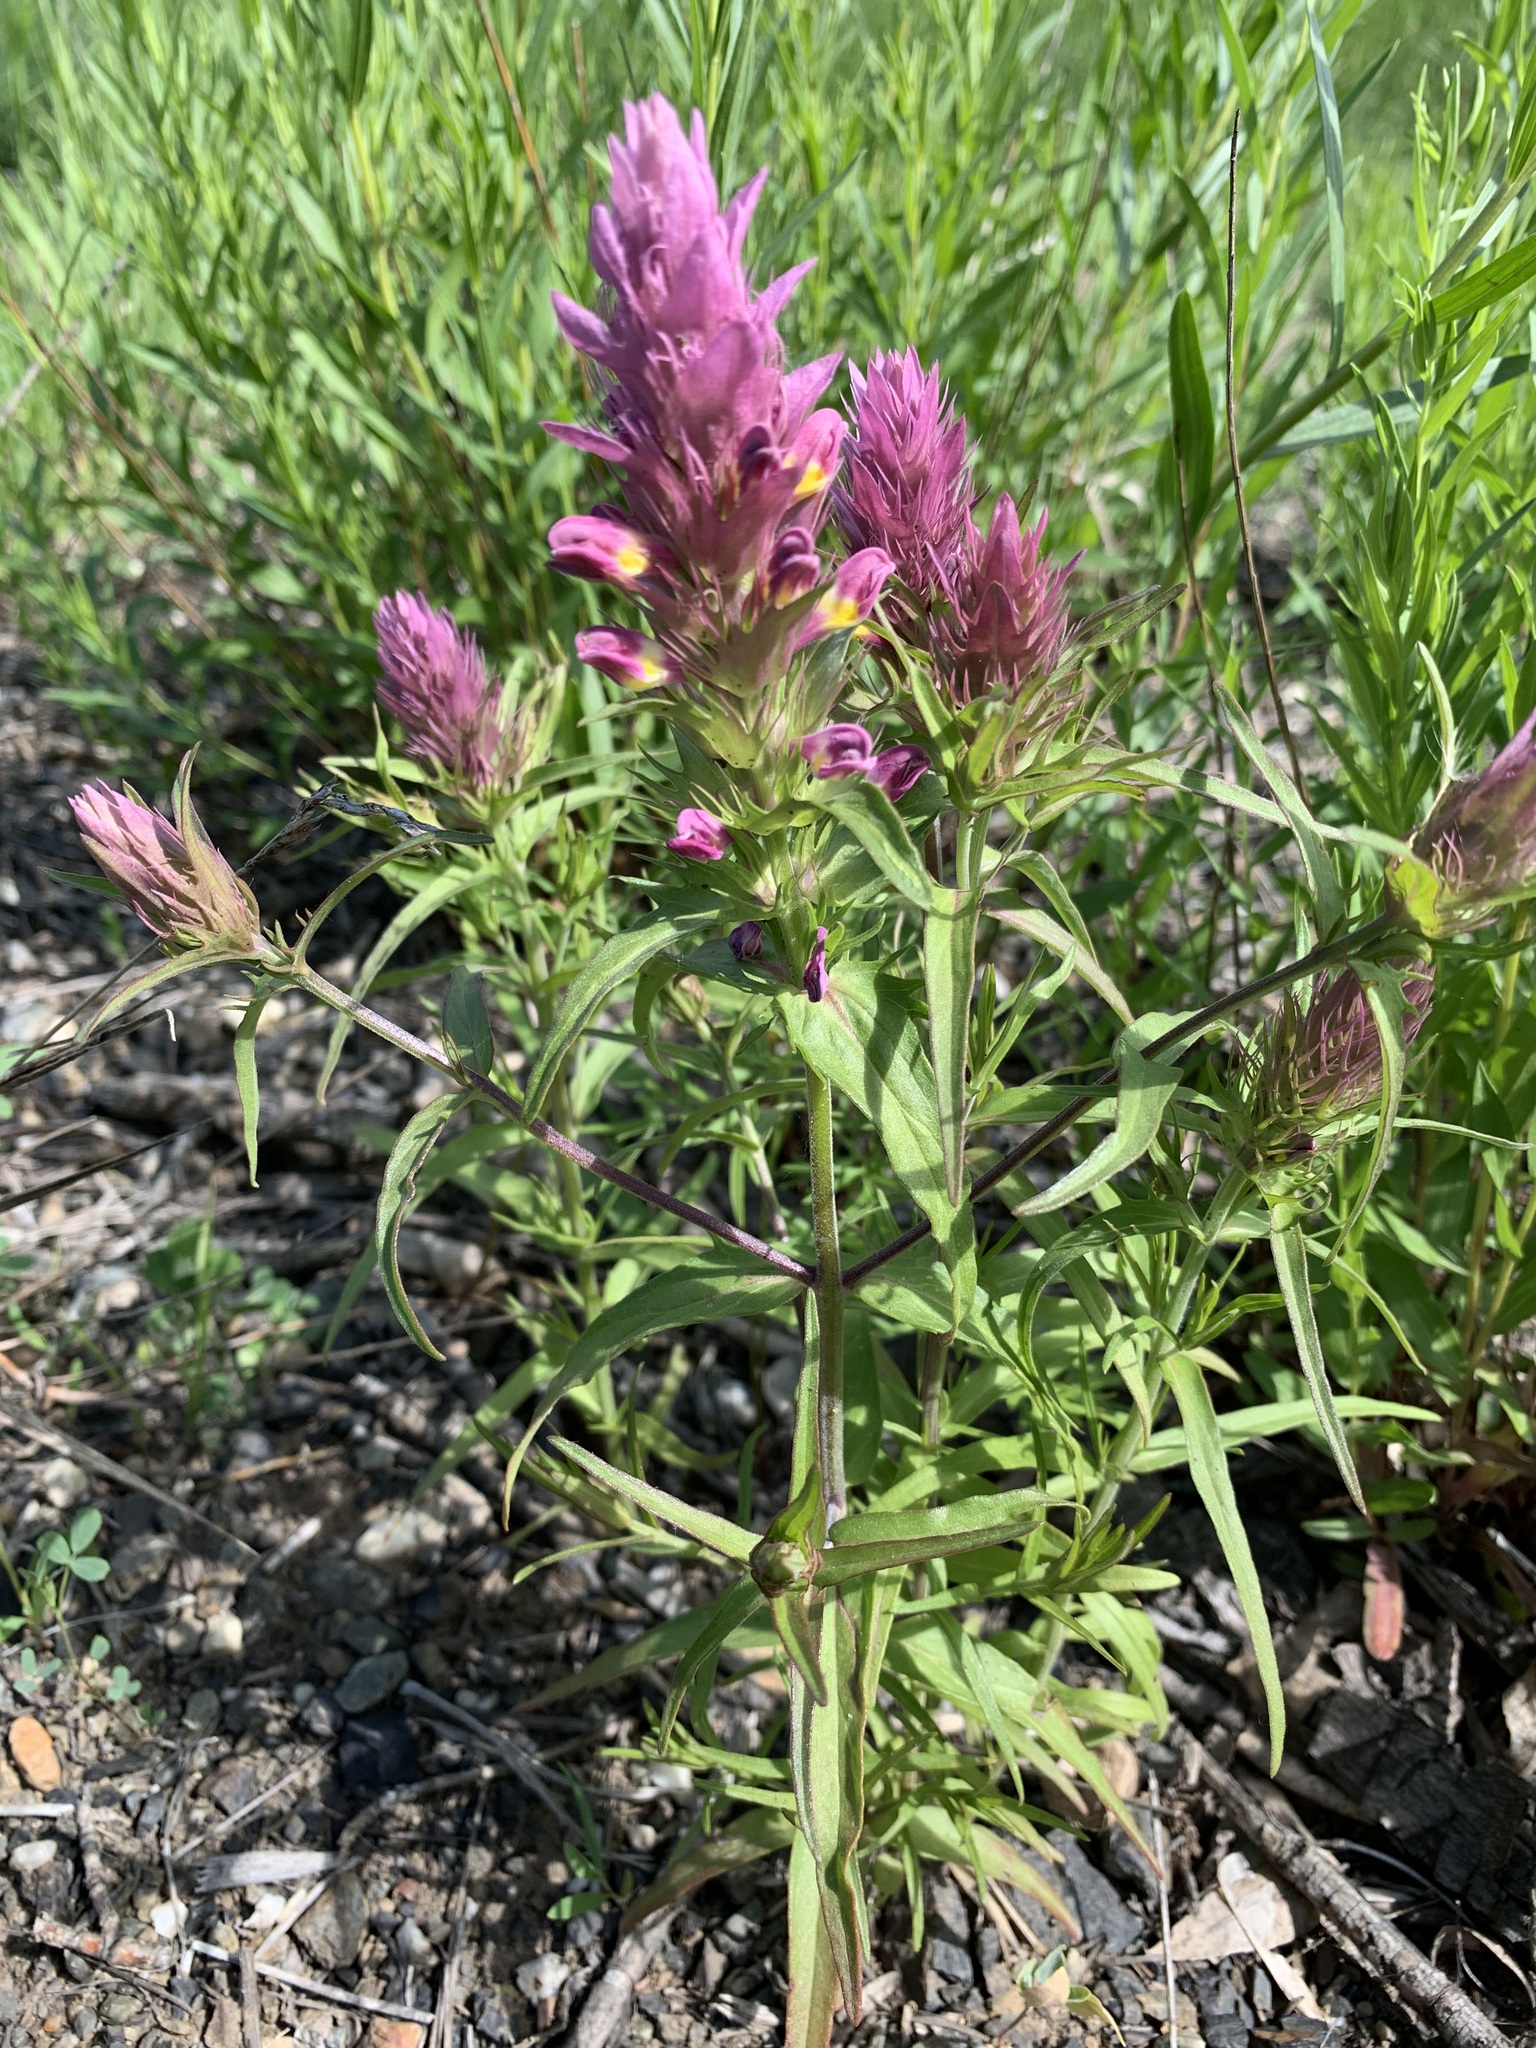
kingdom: Plantae
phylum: Tracheophyta
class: Magnoliopsida
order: Lamiales
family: Orobanchaceae
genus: Melampyrum
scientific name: Melampyrum arvense
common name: Field cow-wheat
